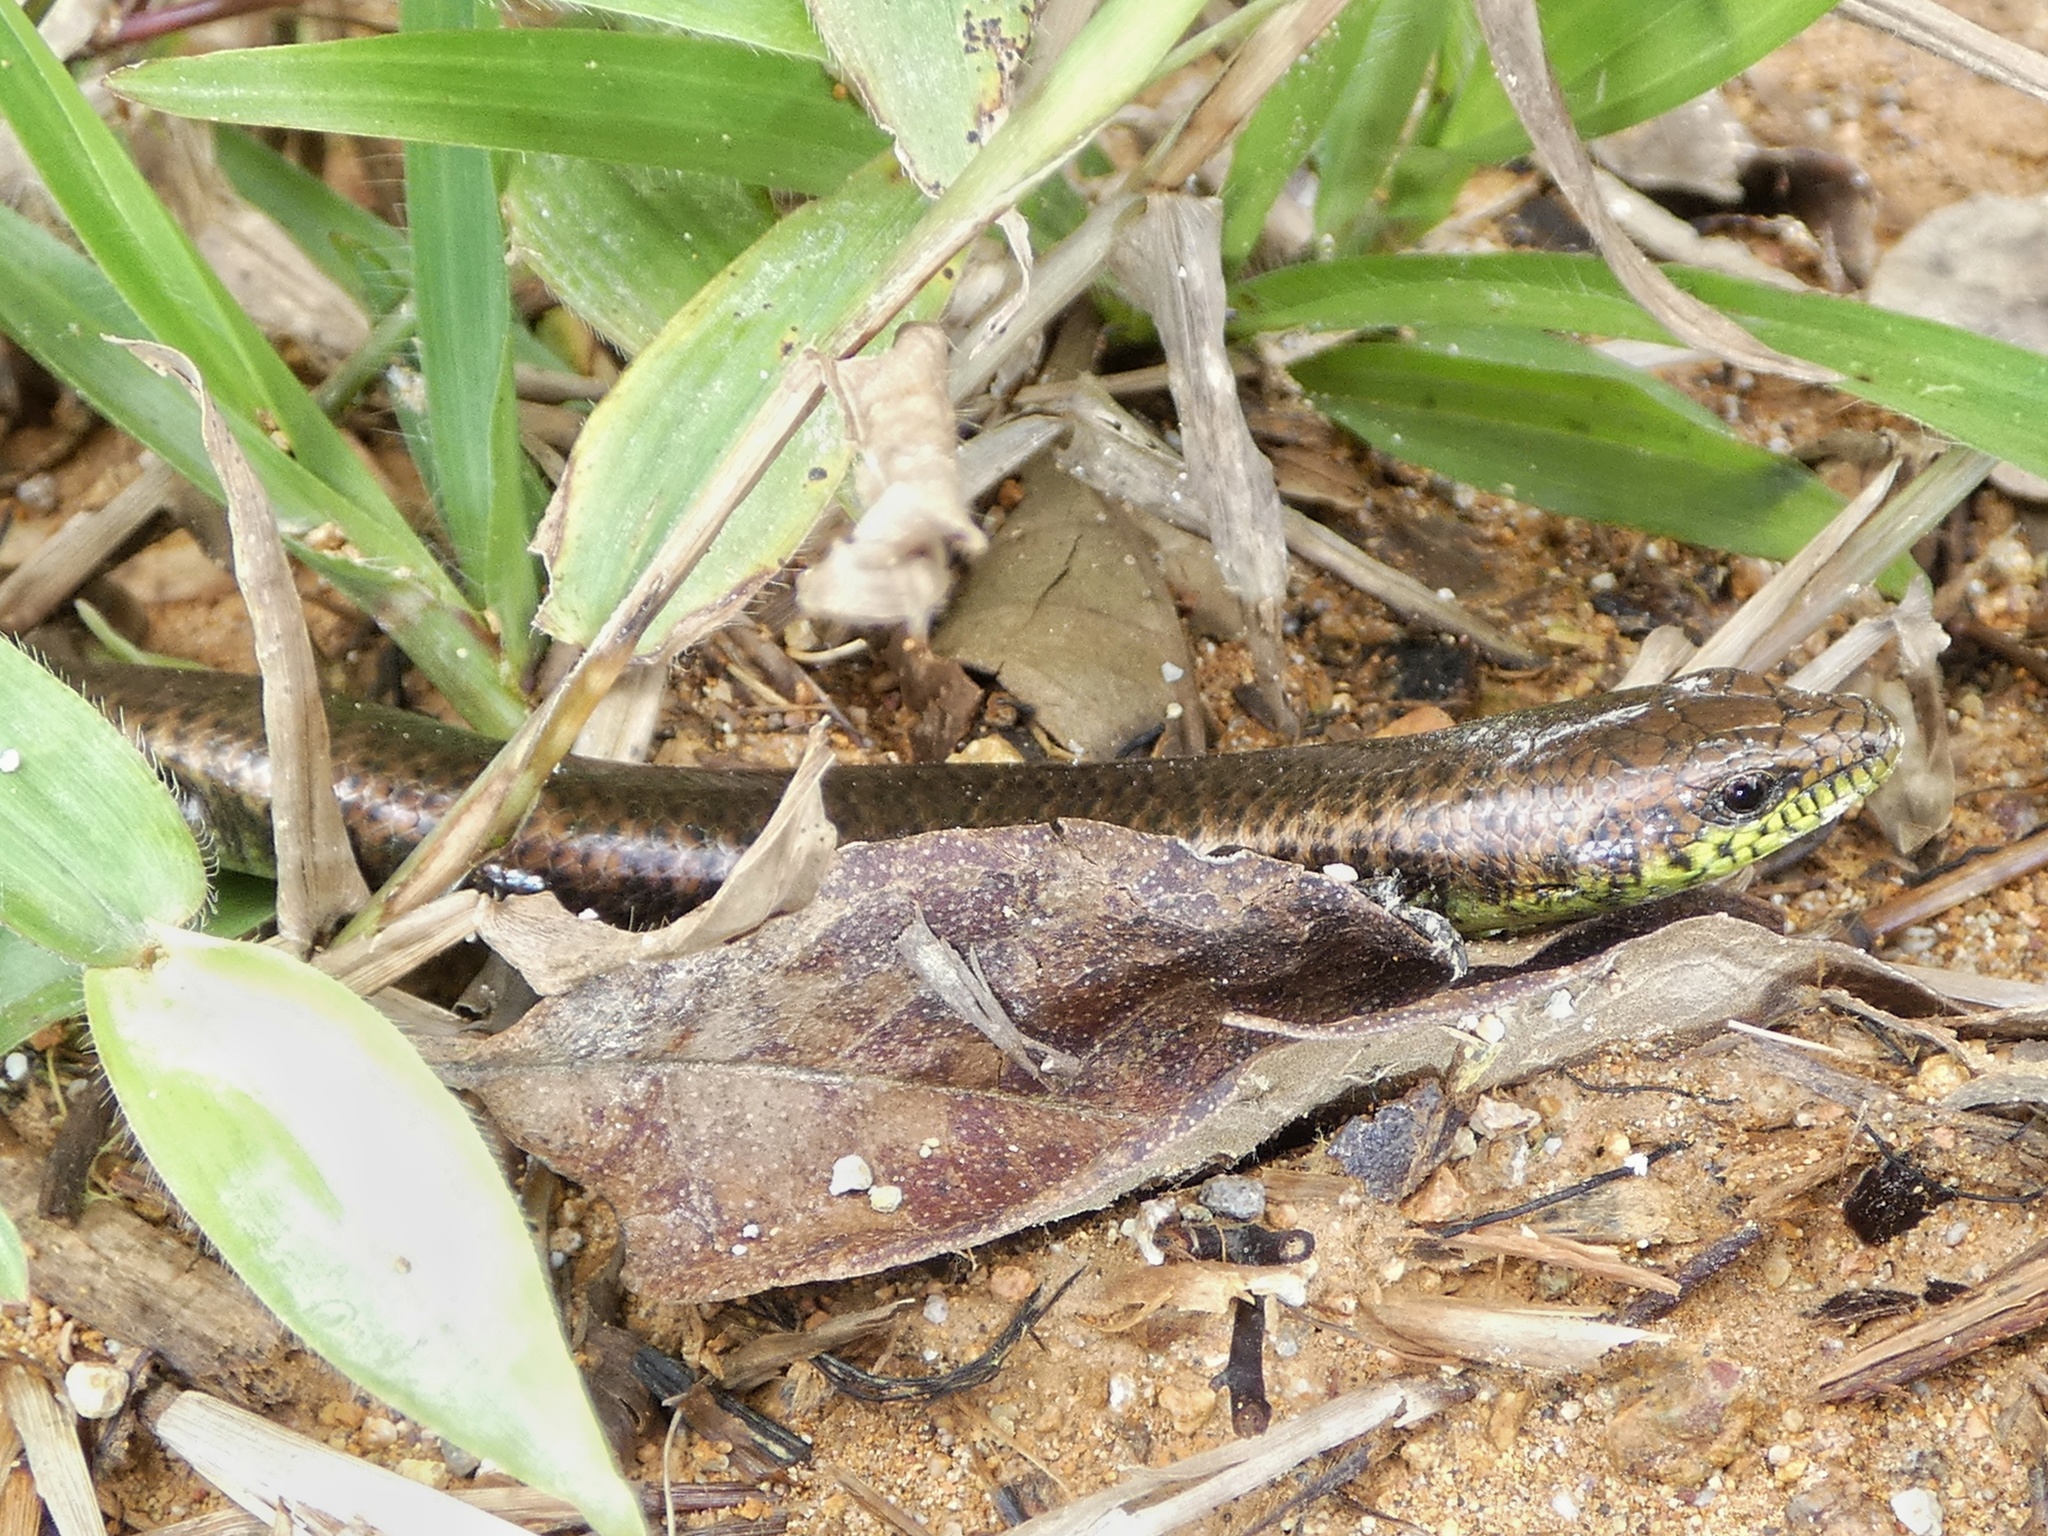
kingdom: Animalia
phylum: Chordata
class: Squamata
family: Diploglossidae
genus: Siderolamprus
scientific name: Siderolamprus
